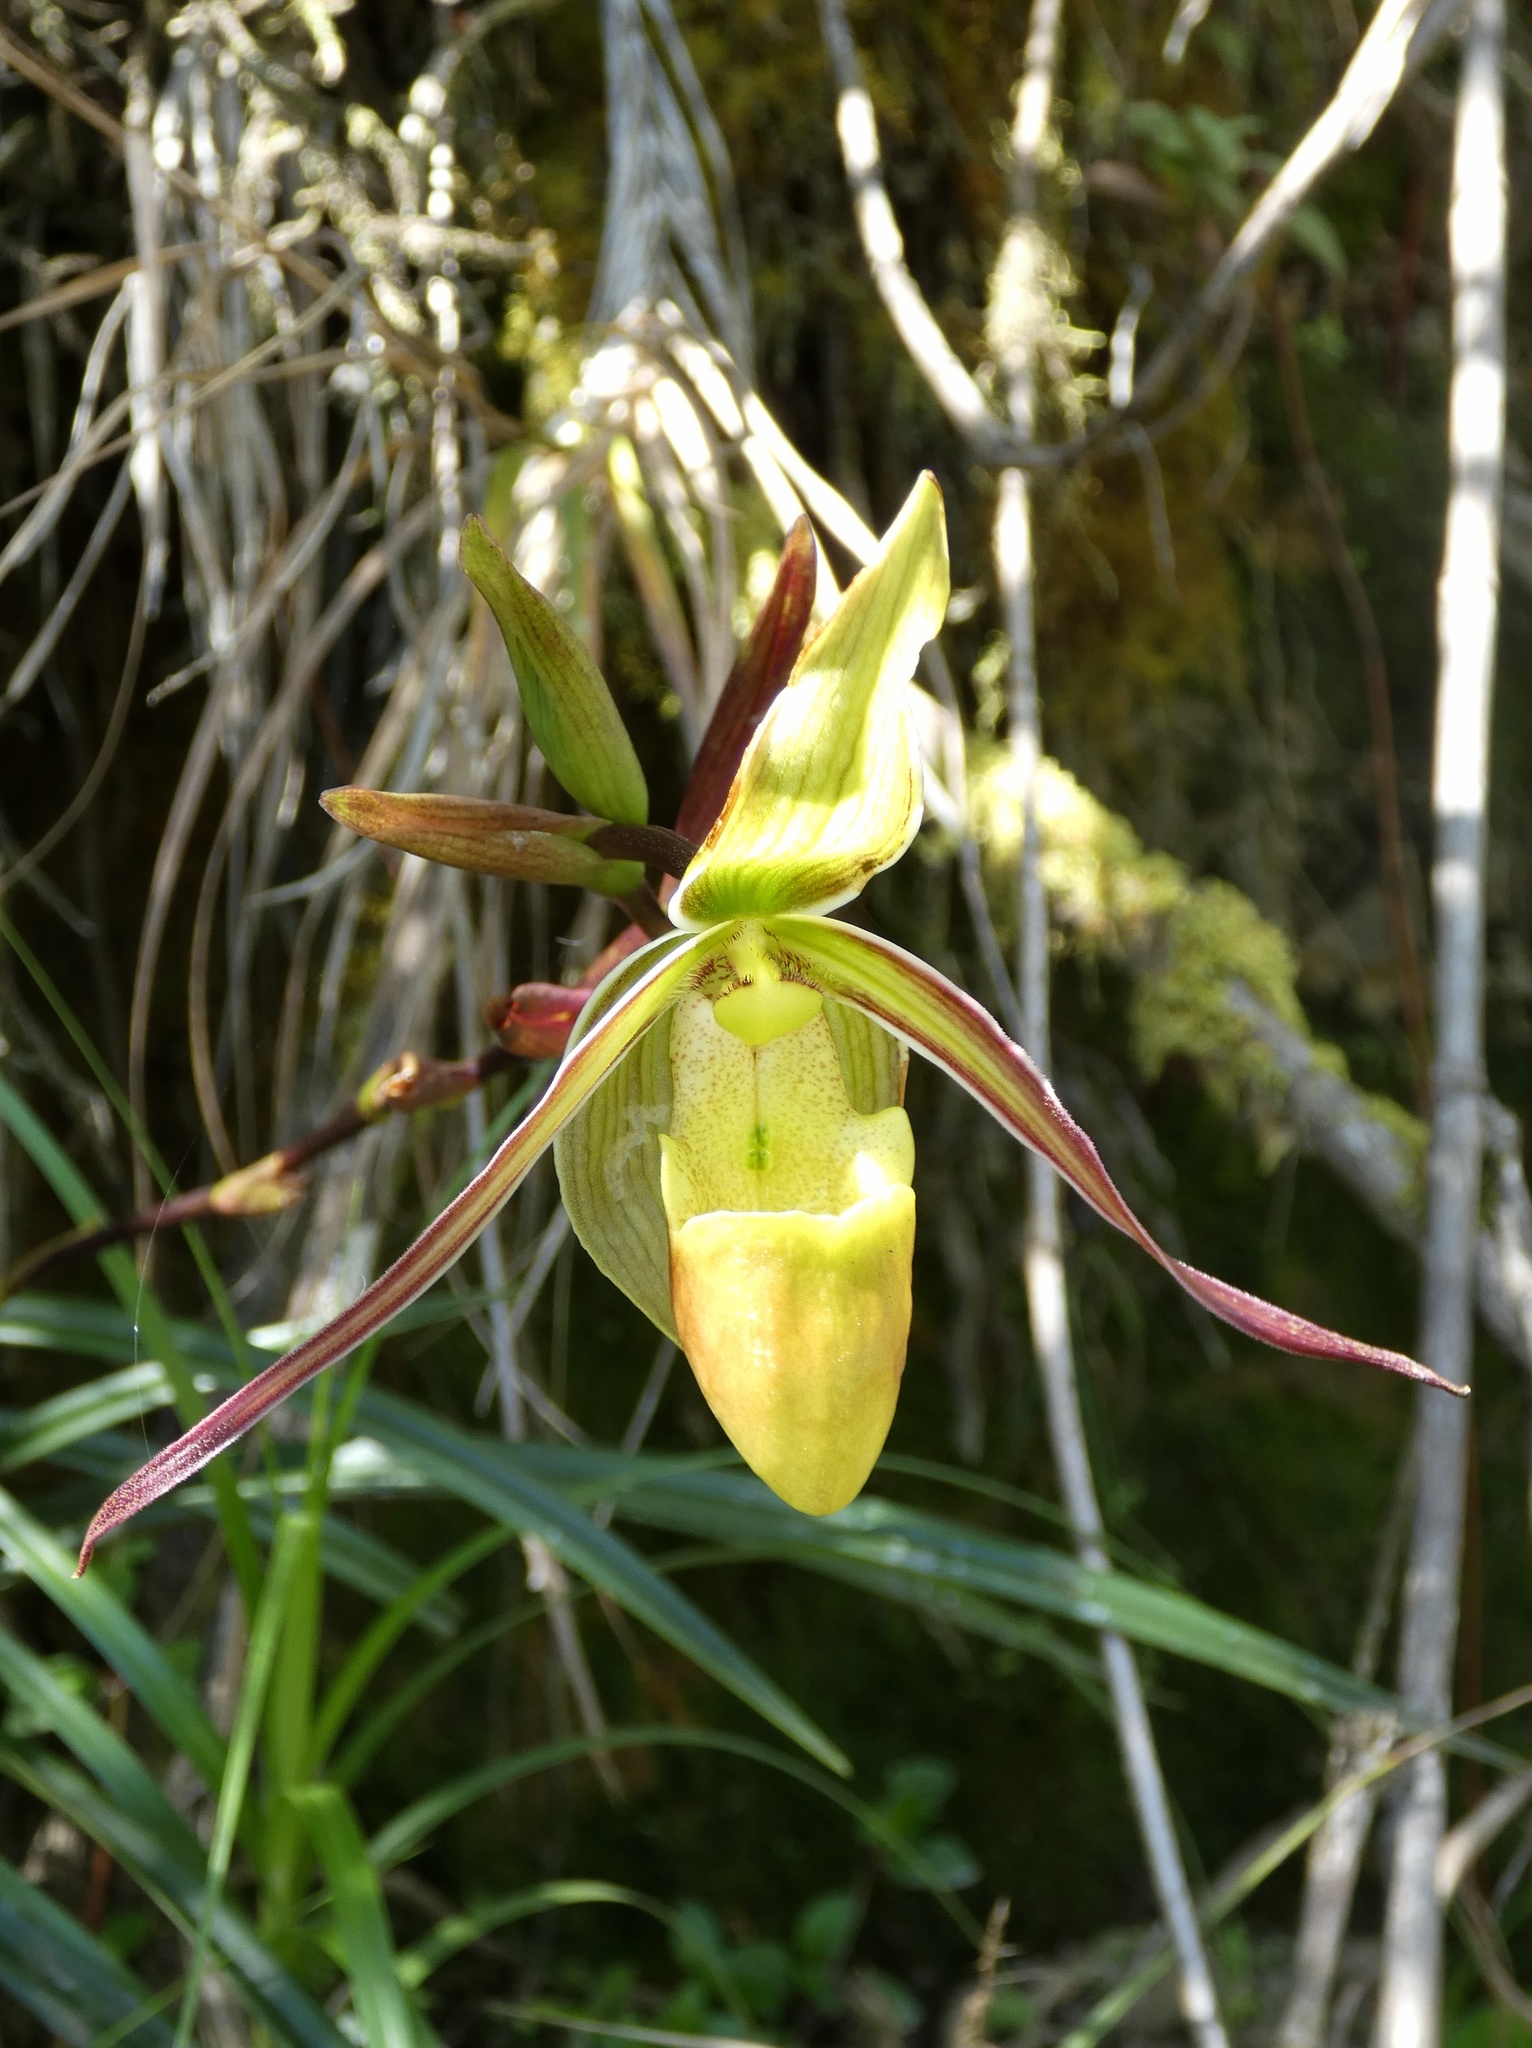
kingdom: Plantae
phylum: Tracheophyta
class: Liliopsida
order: Asparagales
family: Orchidaceae
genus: Phragmipedium
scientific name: Phragmipedium longifolium
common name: Long-leaf phragmipedium
